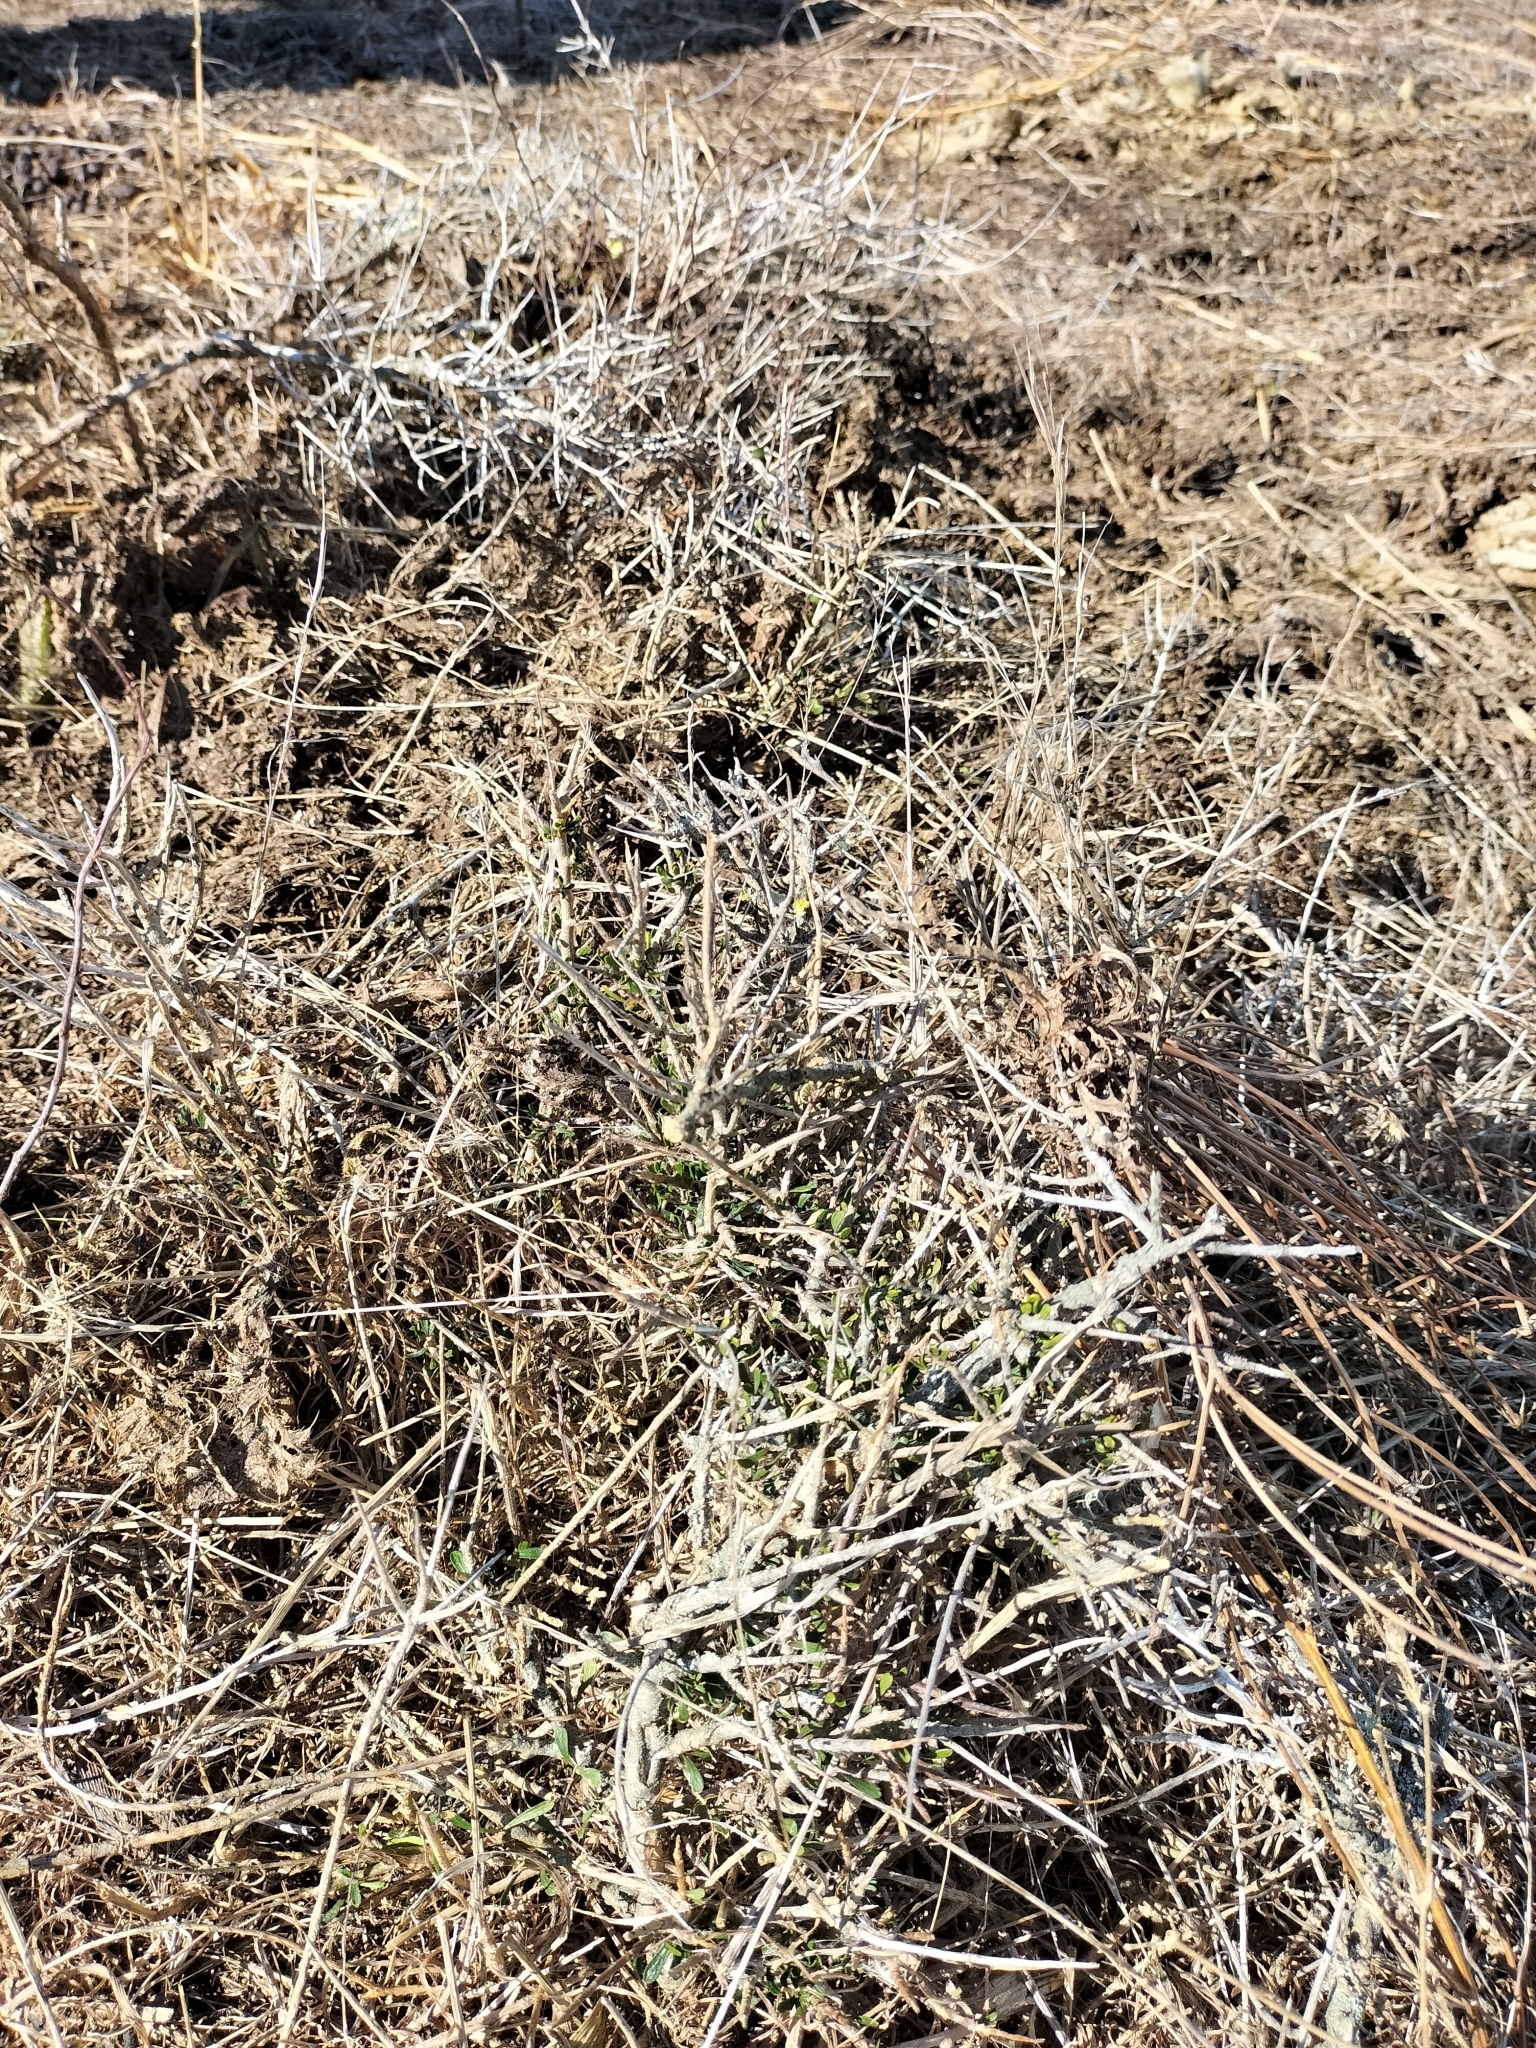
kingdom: Plantae
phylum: Tracheophyta
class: Magnoliopsida
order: Malpighiales
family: Violaceae
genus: Melicytus
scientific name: Melicytus alpinus
